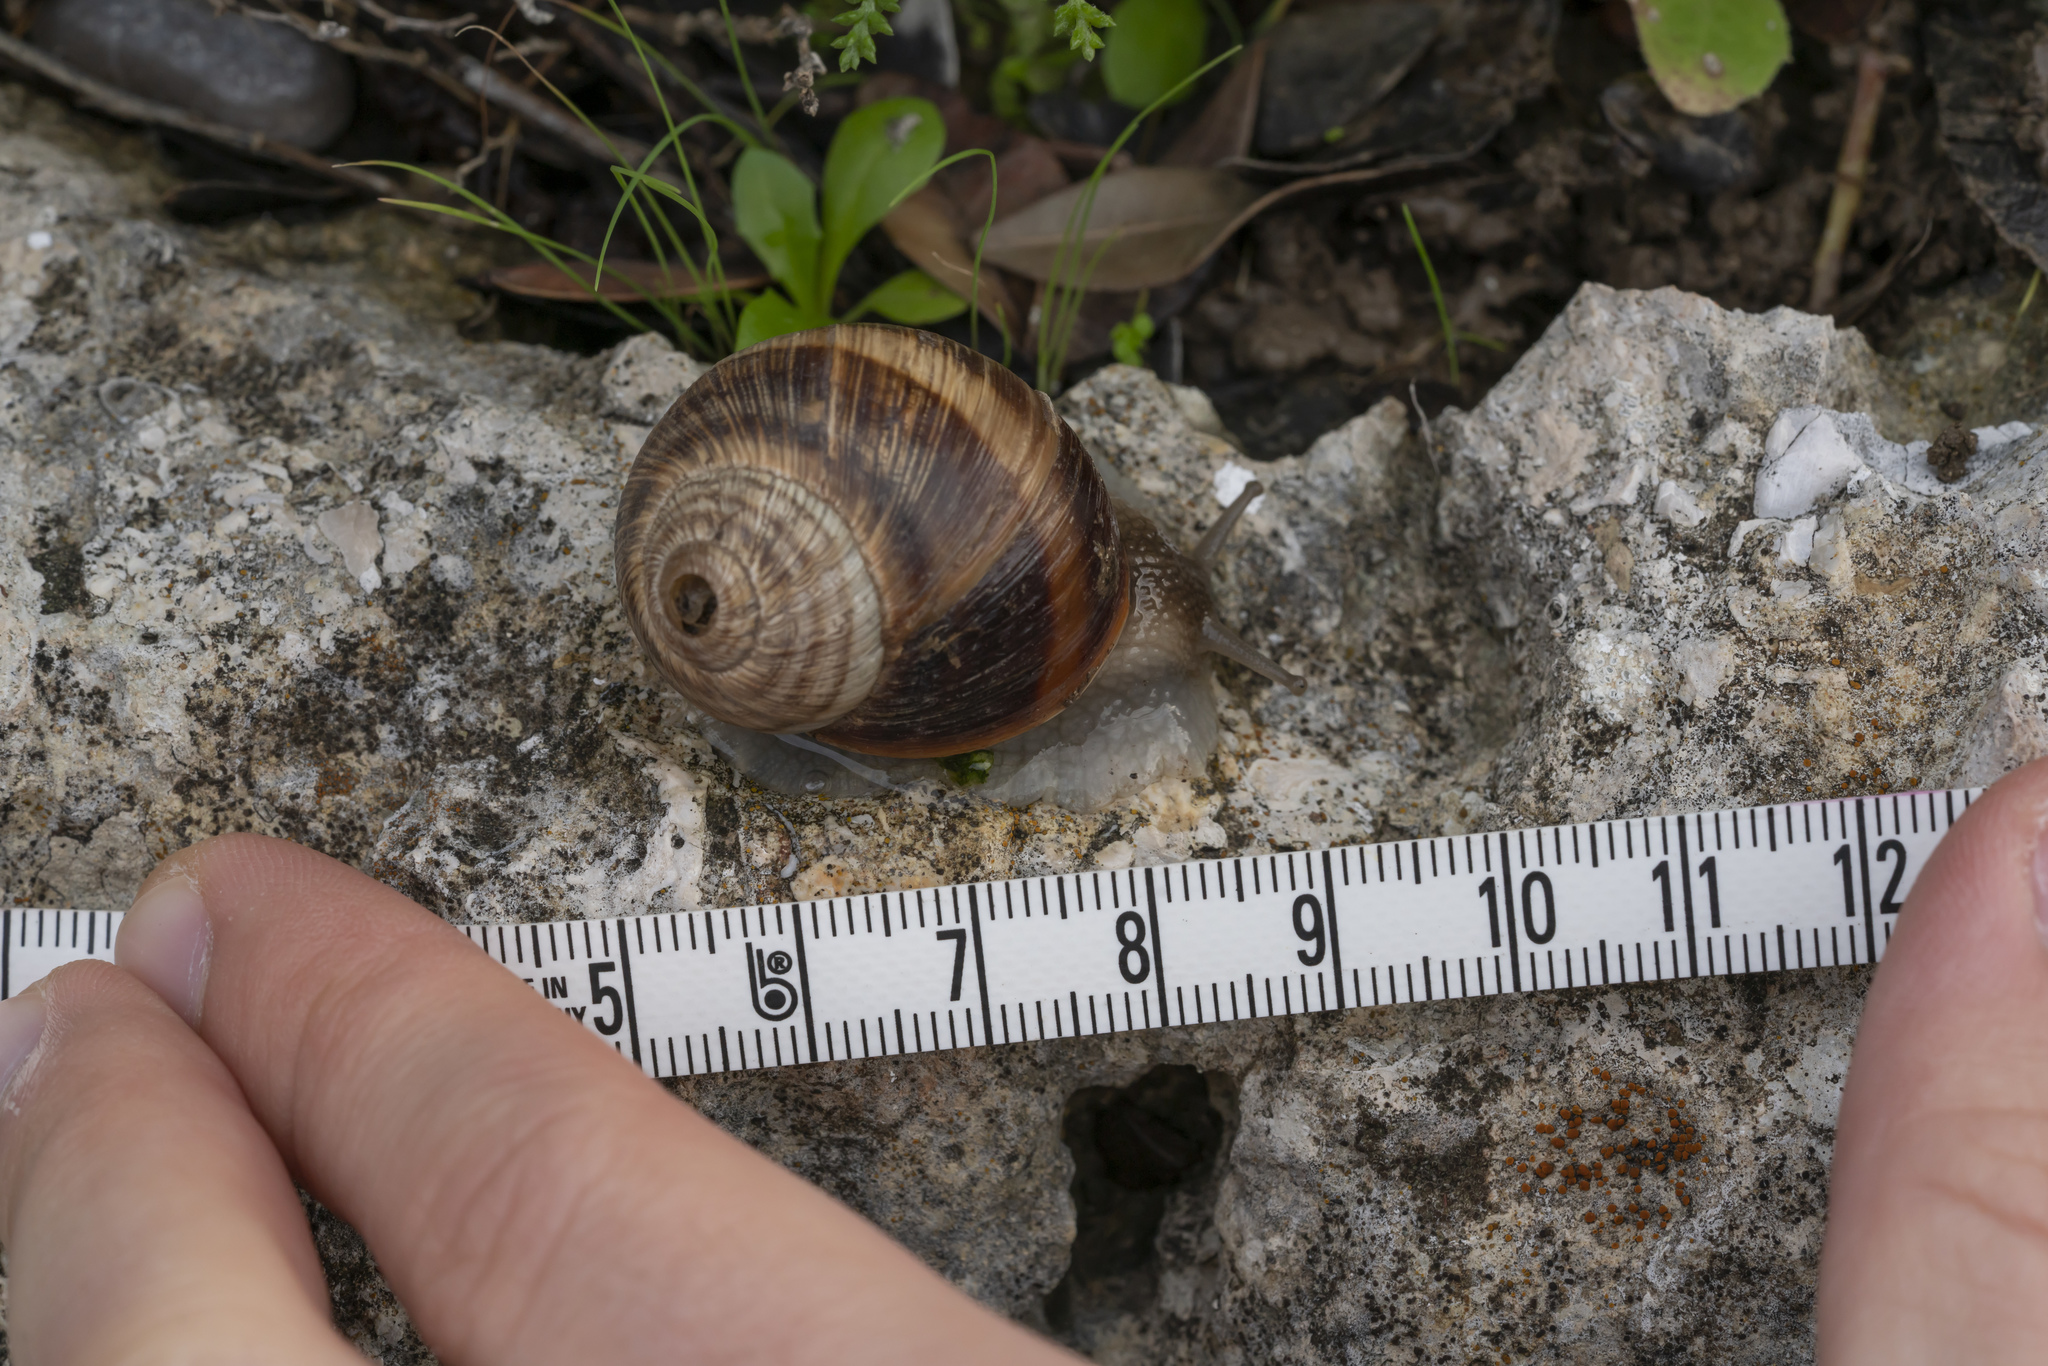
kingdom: Animalia
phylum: Mollusca
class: Gastropoda
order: Stylommatophora
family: Helicidae
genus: Helix
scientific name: Helix nucula
